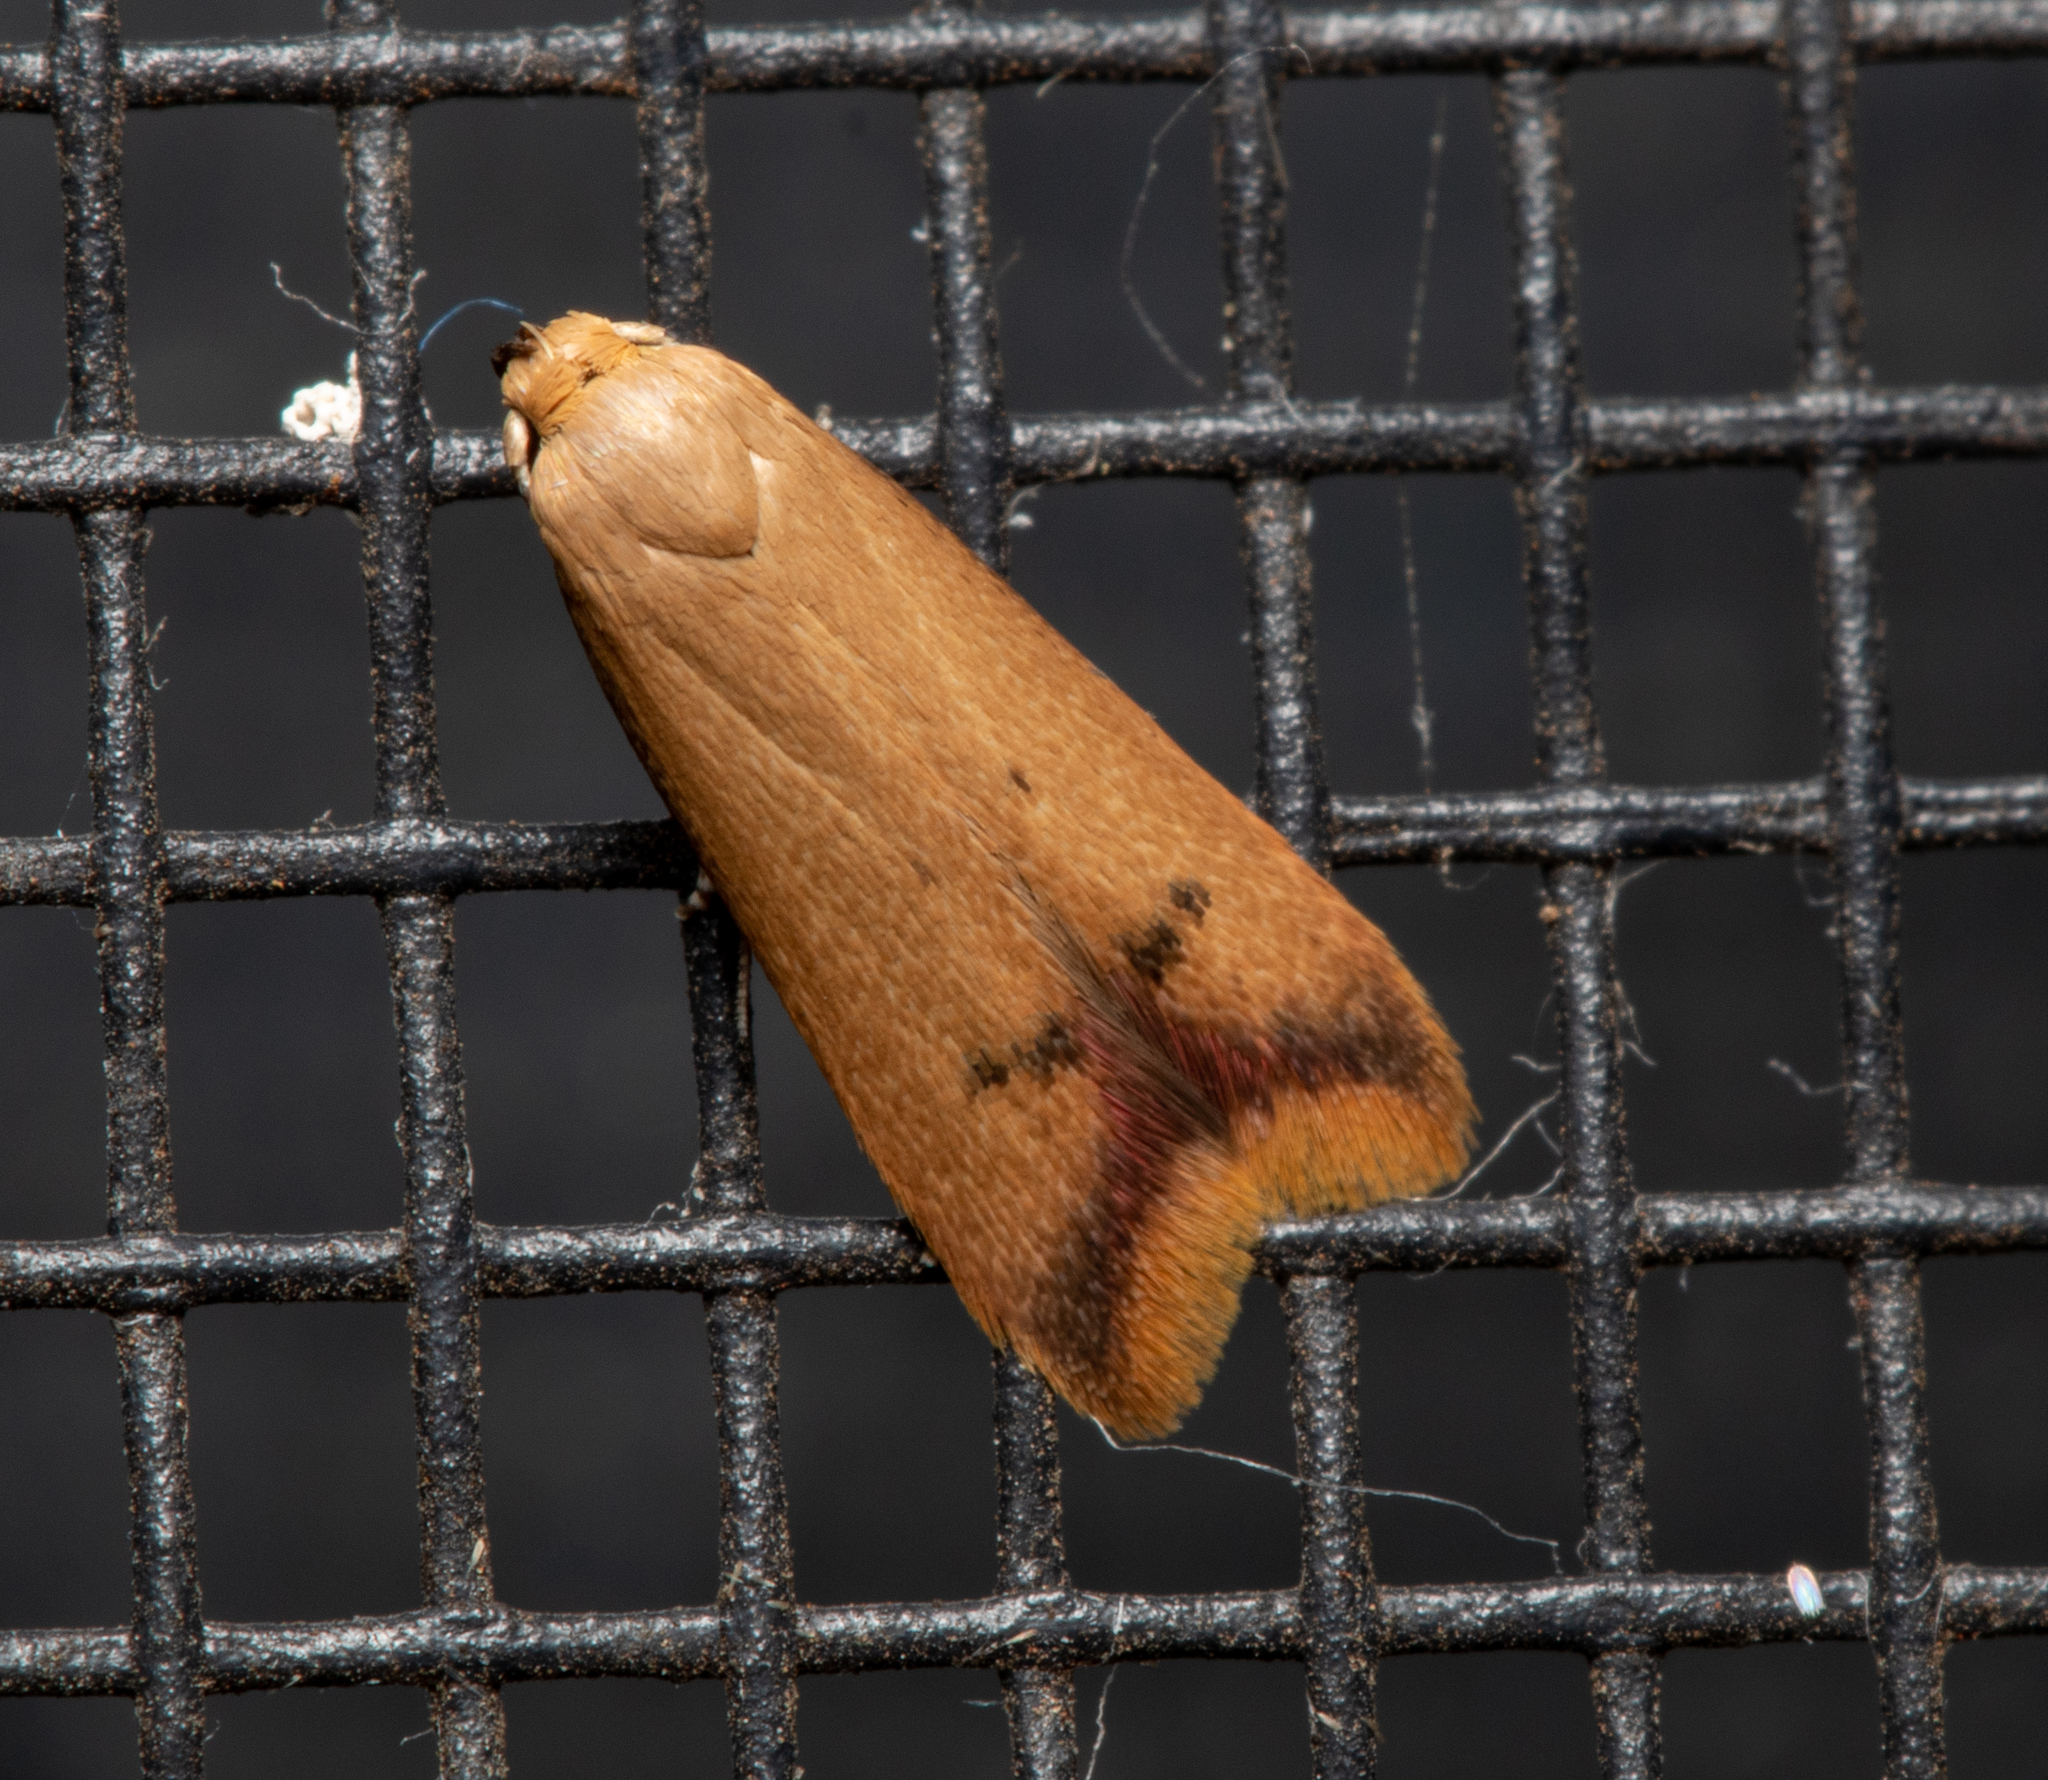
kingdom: Animalia
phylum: Arthropoda
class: Insecta
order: Lepidoptera
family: Oecophoridae
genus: Tachystola
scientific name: Tachystola hemisema
